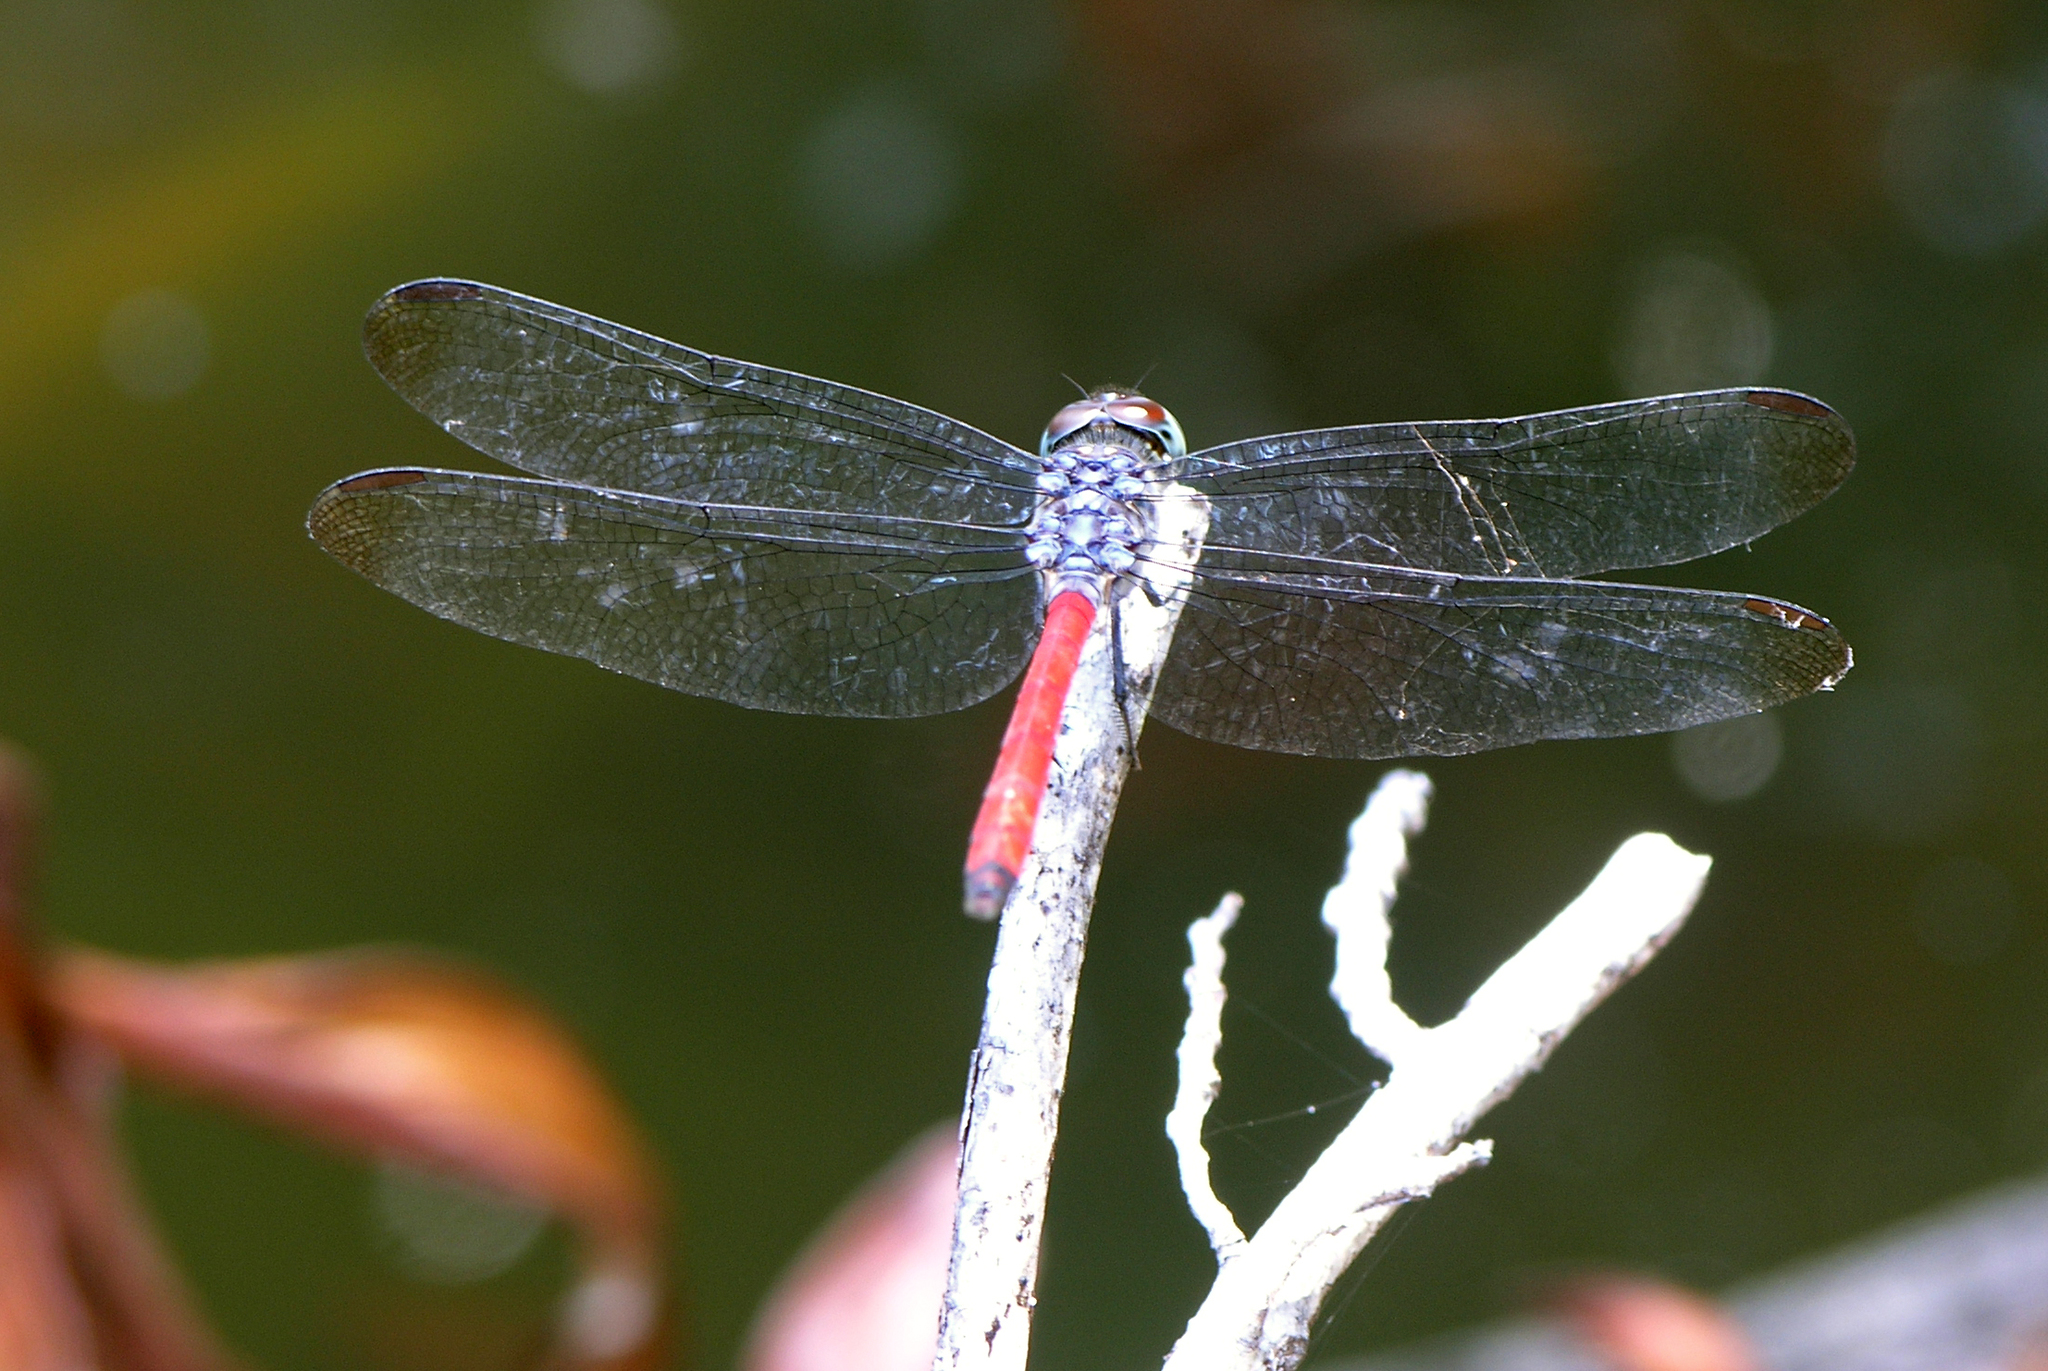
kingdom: Animalia
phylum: Arthropoda
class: Insecta
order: Odonata
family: Libellulidae
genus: Lathrecista
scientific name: Lathrecista asiatica
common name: Scarlet grenadier
